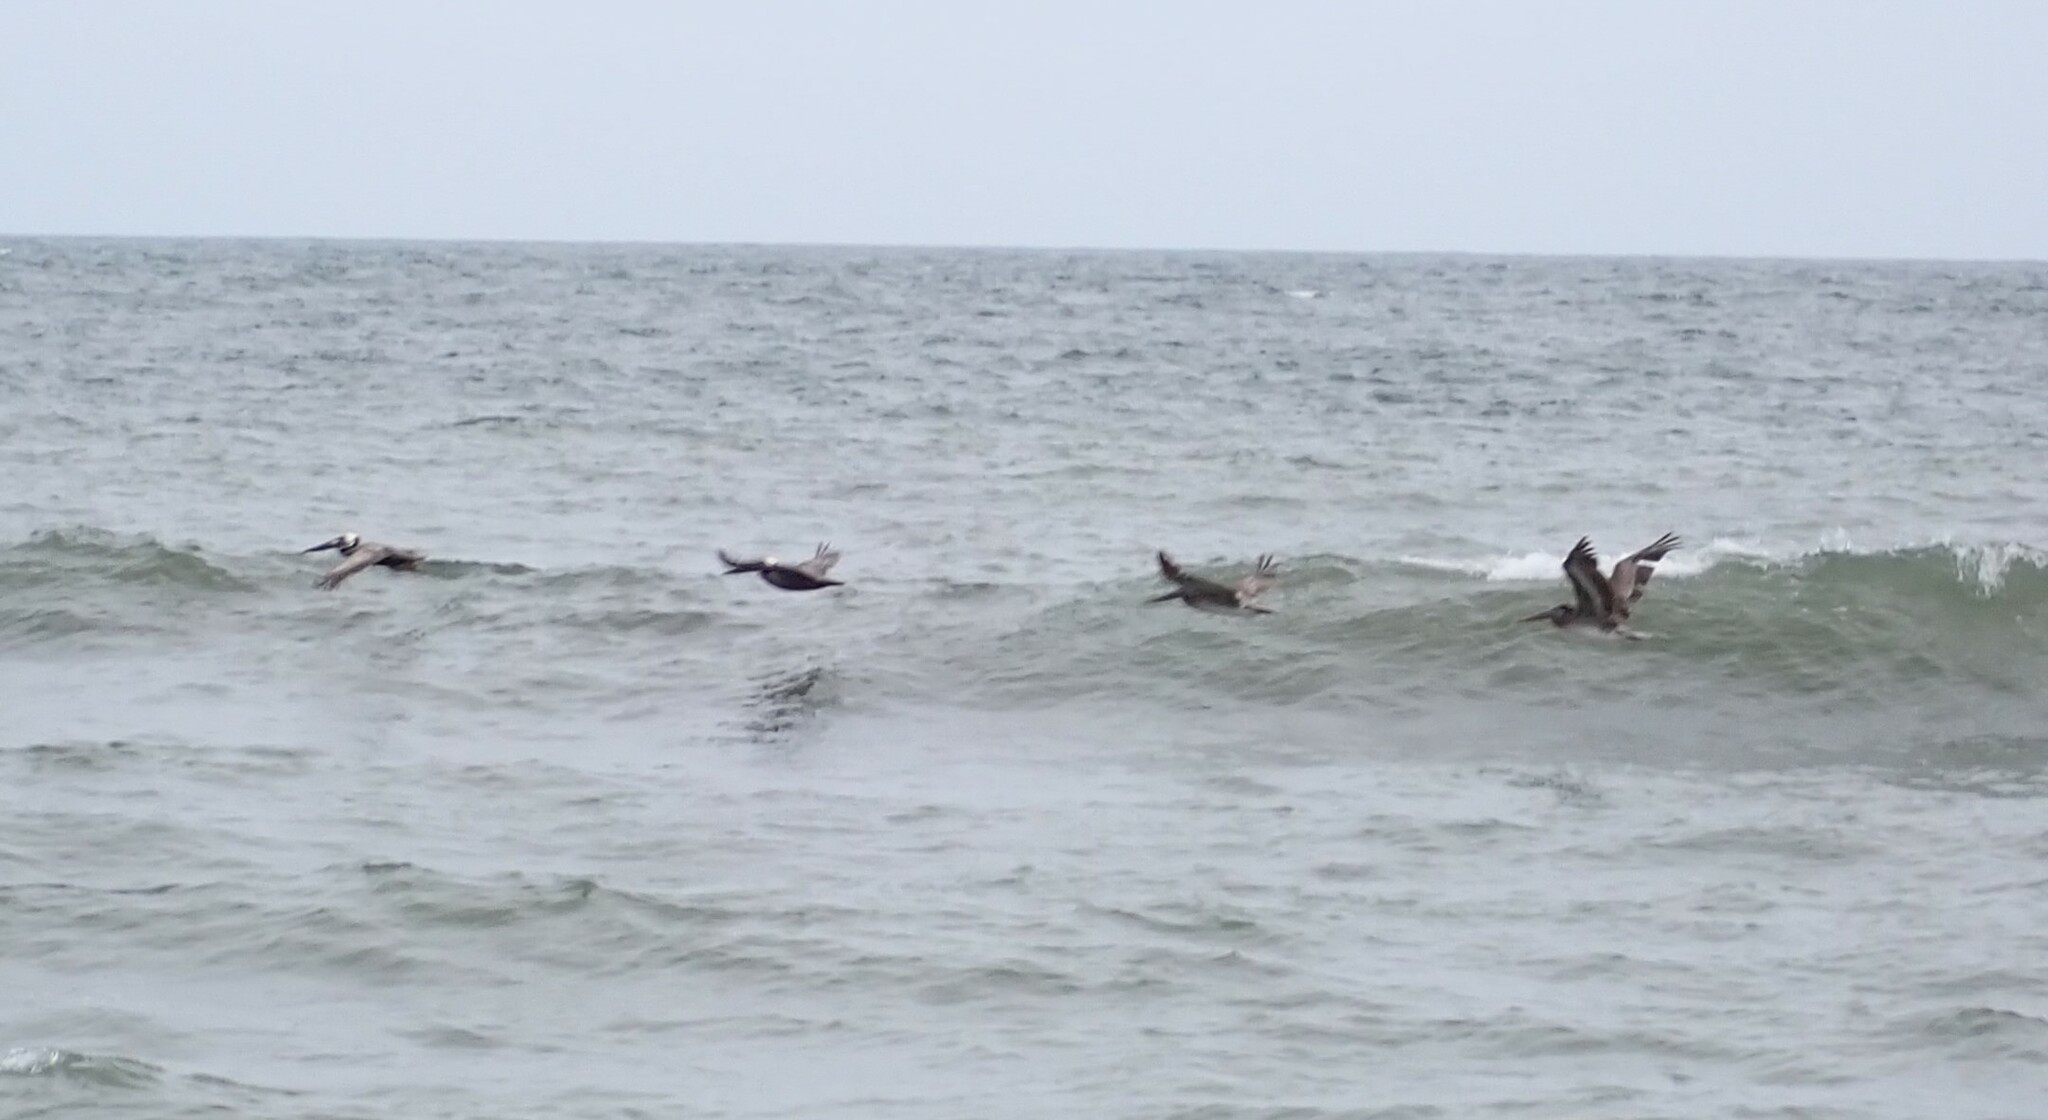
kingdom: Animalia
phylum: Chordata
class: Aves
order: Pelecaniformes
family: Pelecanidae
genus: Pelecanus
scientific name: Pelecanus occidentalis
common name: Brown pelican
